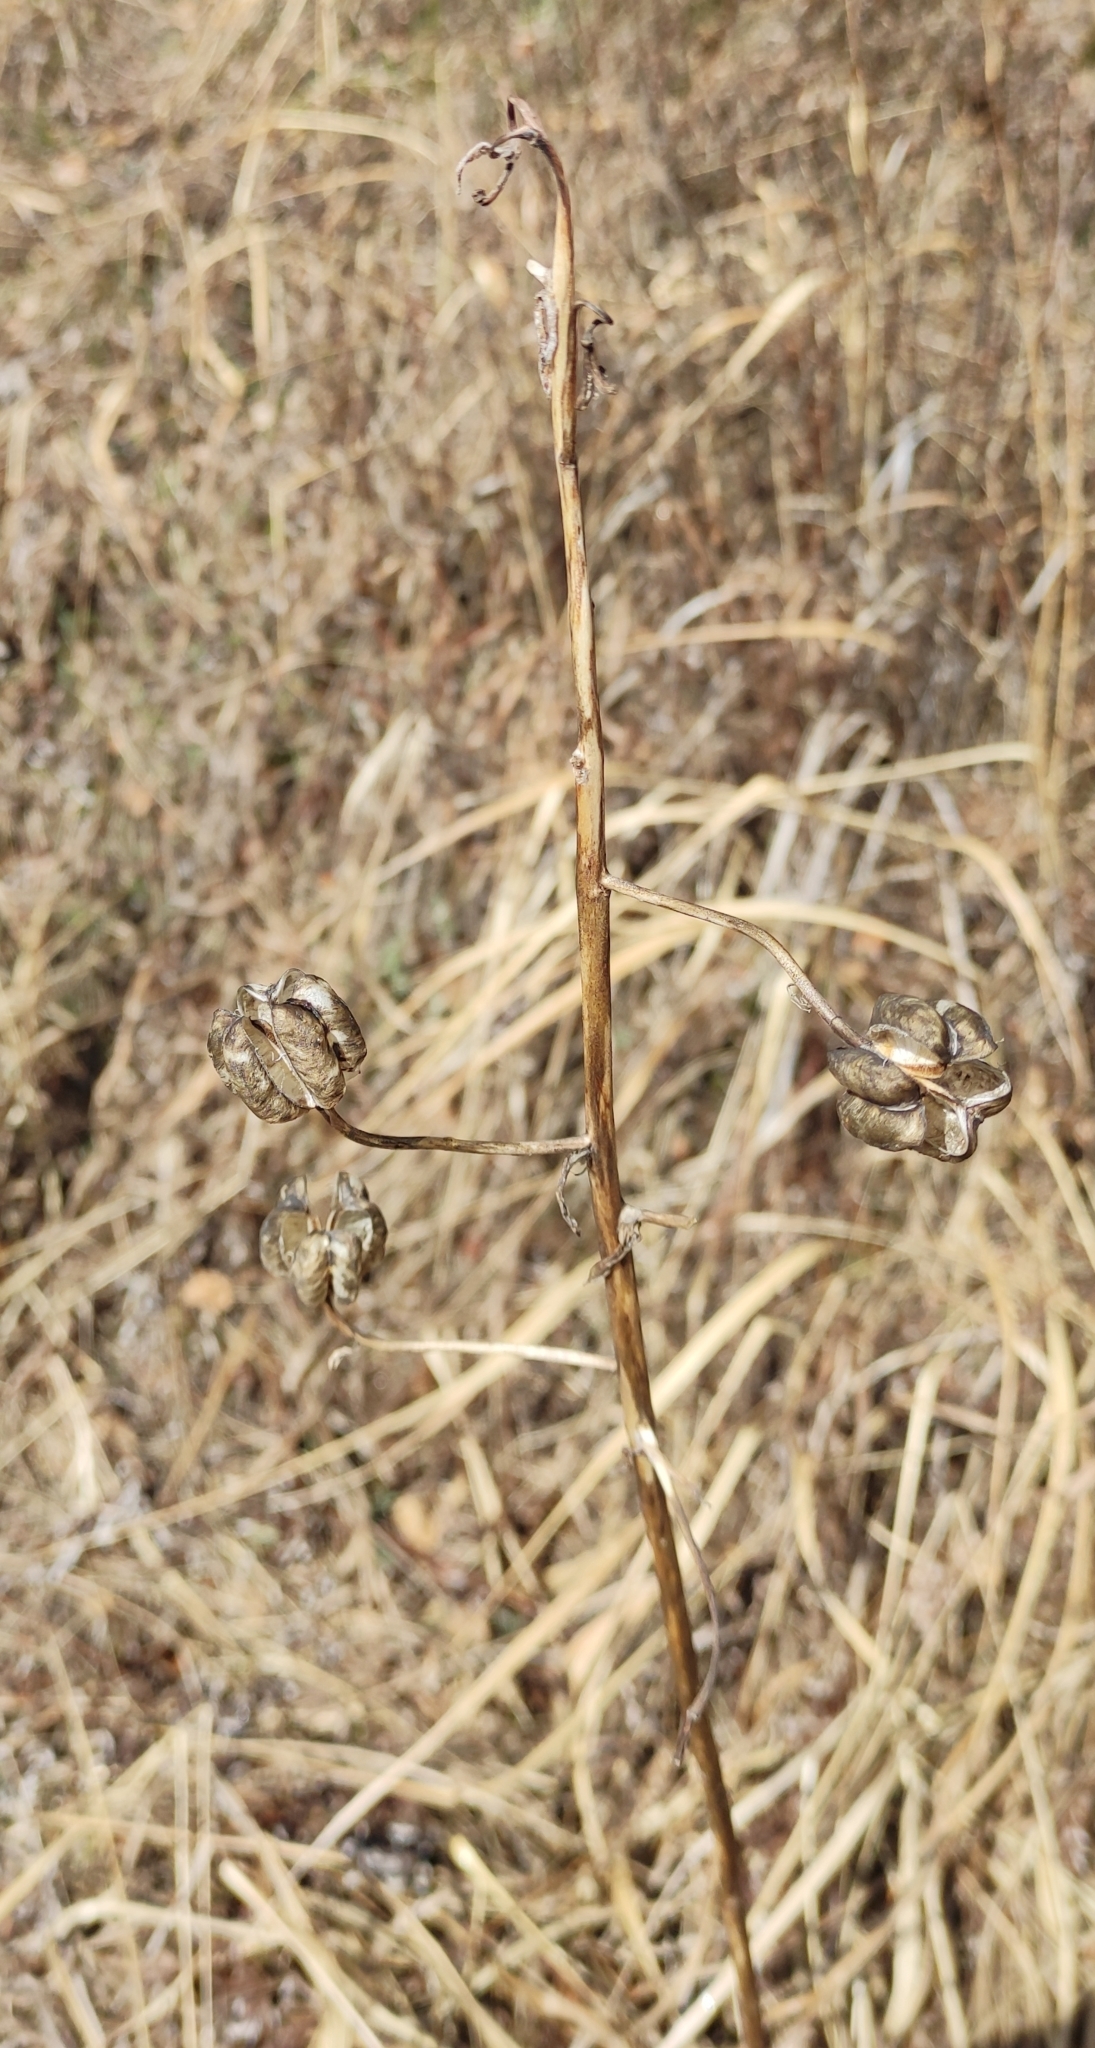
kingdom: Plantae
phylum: Tracheophyta
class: Liliopsida
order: Liliales
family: Liliaceae
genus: Lilium
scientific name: Lilium martagon
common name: Martagon lily
